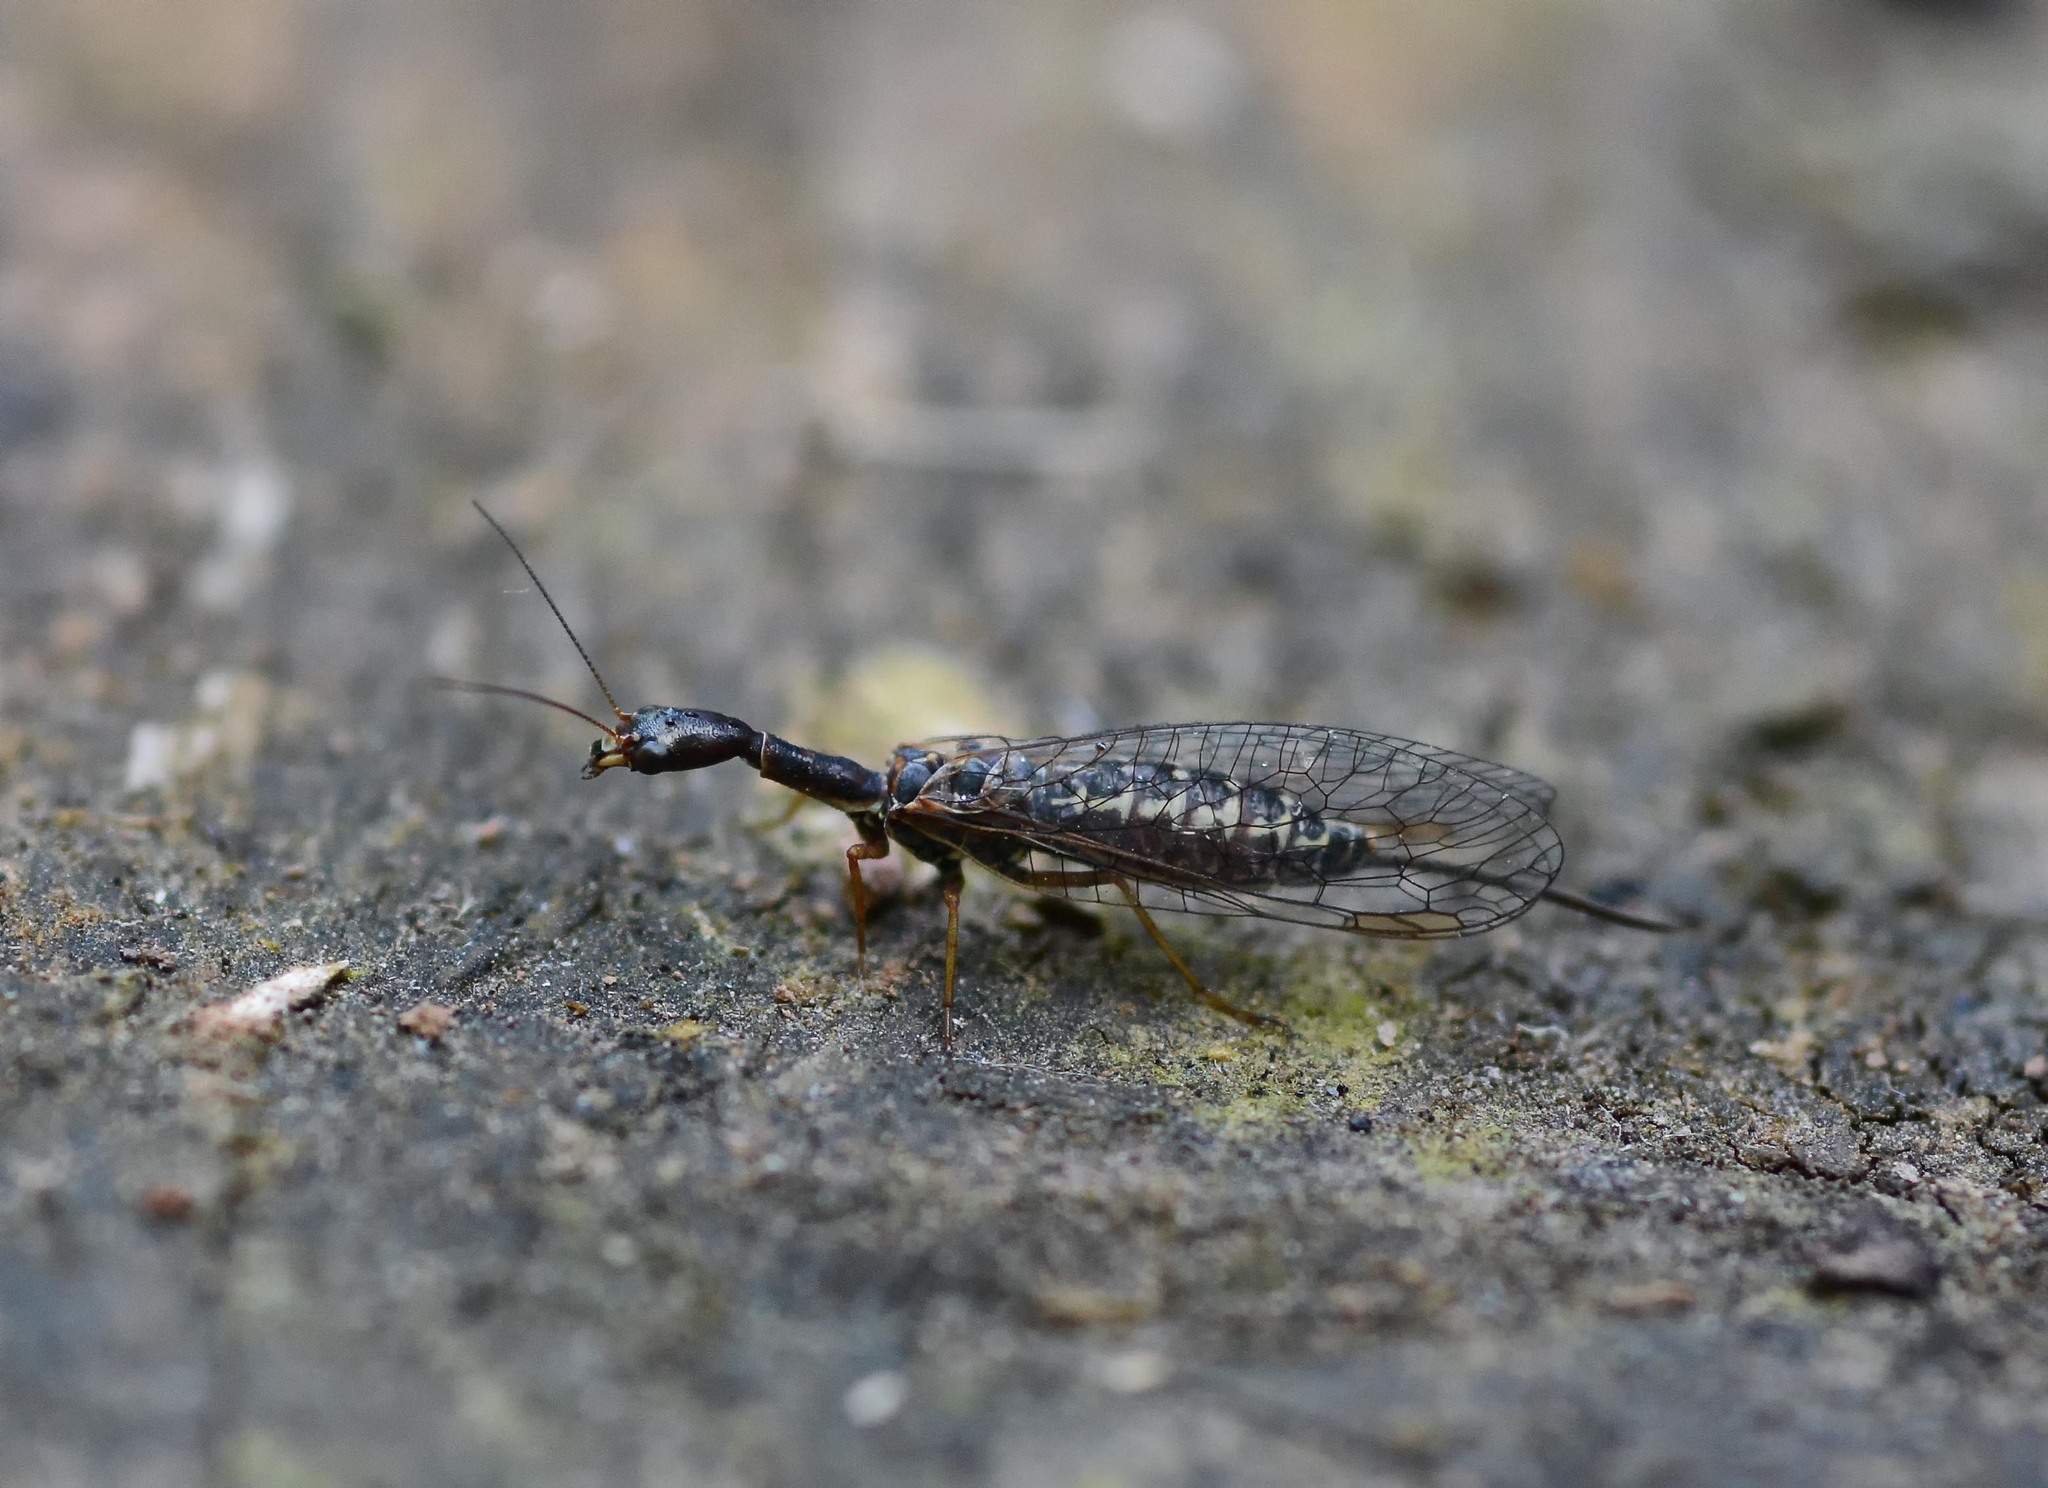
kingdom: Animalia
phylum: Arthropoda
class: Insecta
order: Raphidioptera
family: Raphidiidae
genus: Atlantoraphidia
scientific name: Atlantoraphidia maculicollis
